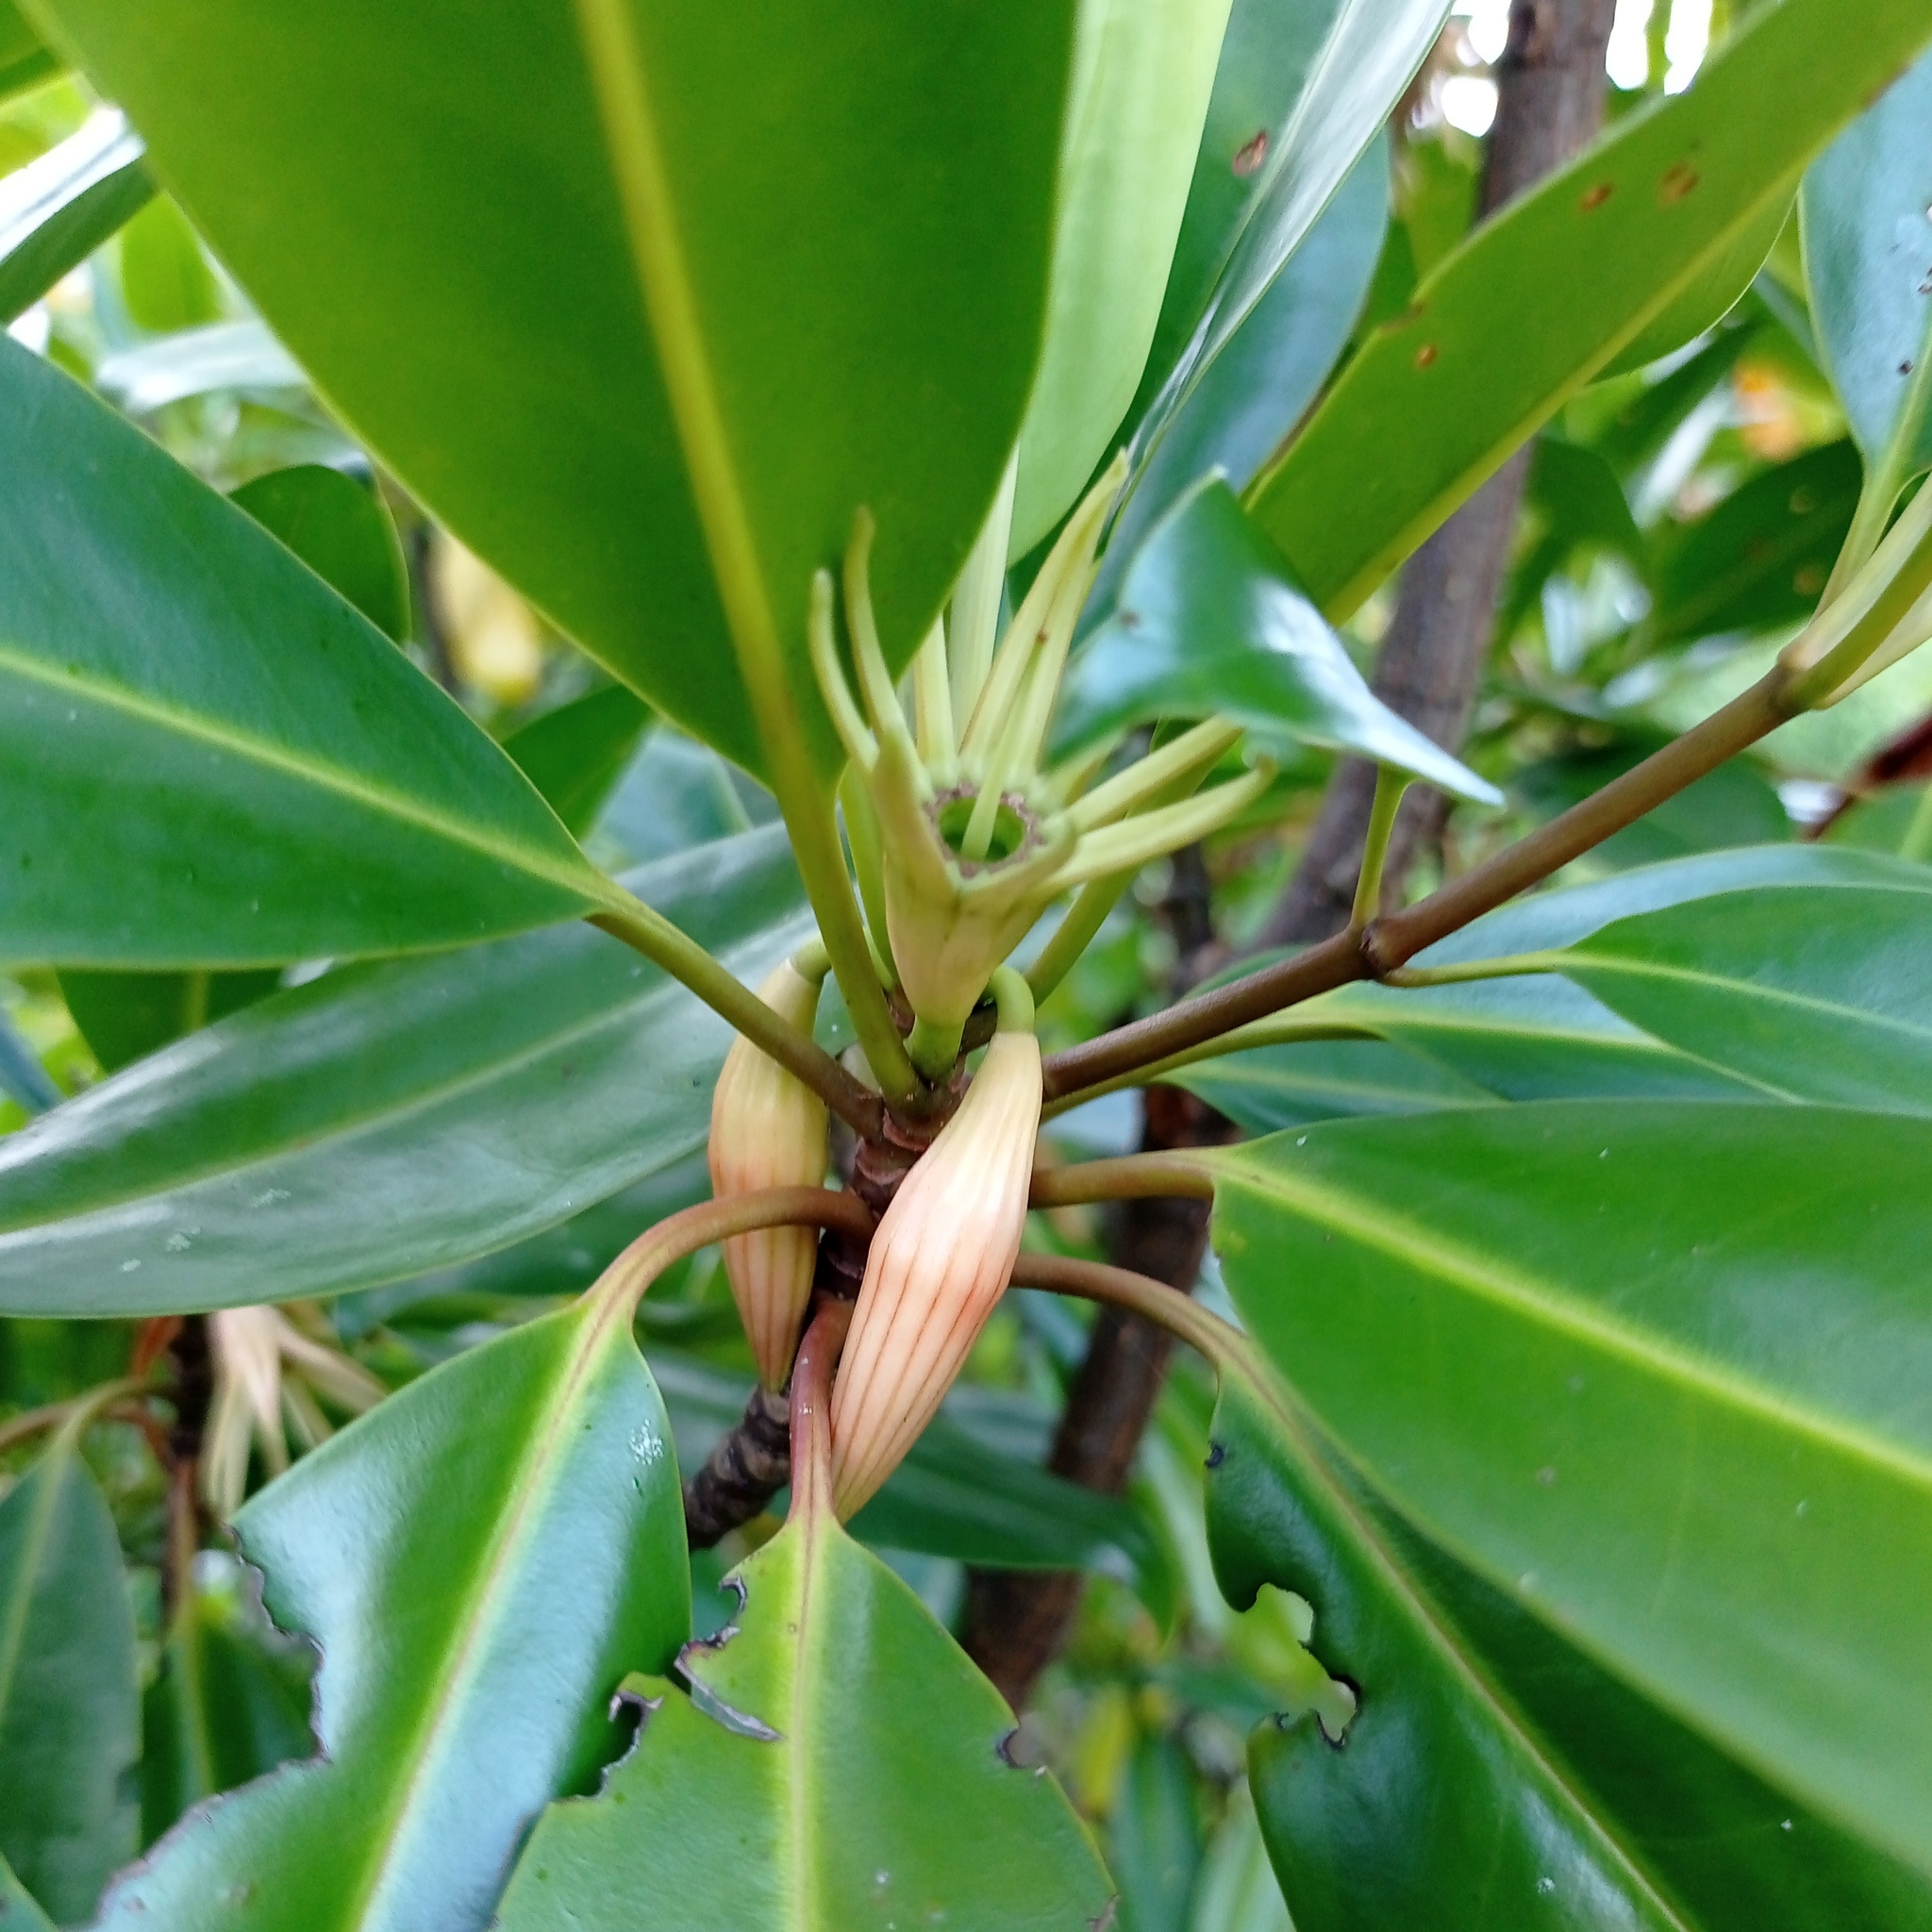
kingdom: Plantae
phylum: Tracheophyta
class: Magnoliopsida
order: Malpighiales
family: Rhizophoraceae
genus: Bruguiera
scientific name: Bruguiera gymnorhiza
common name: Oriental mangrove
